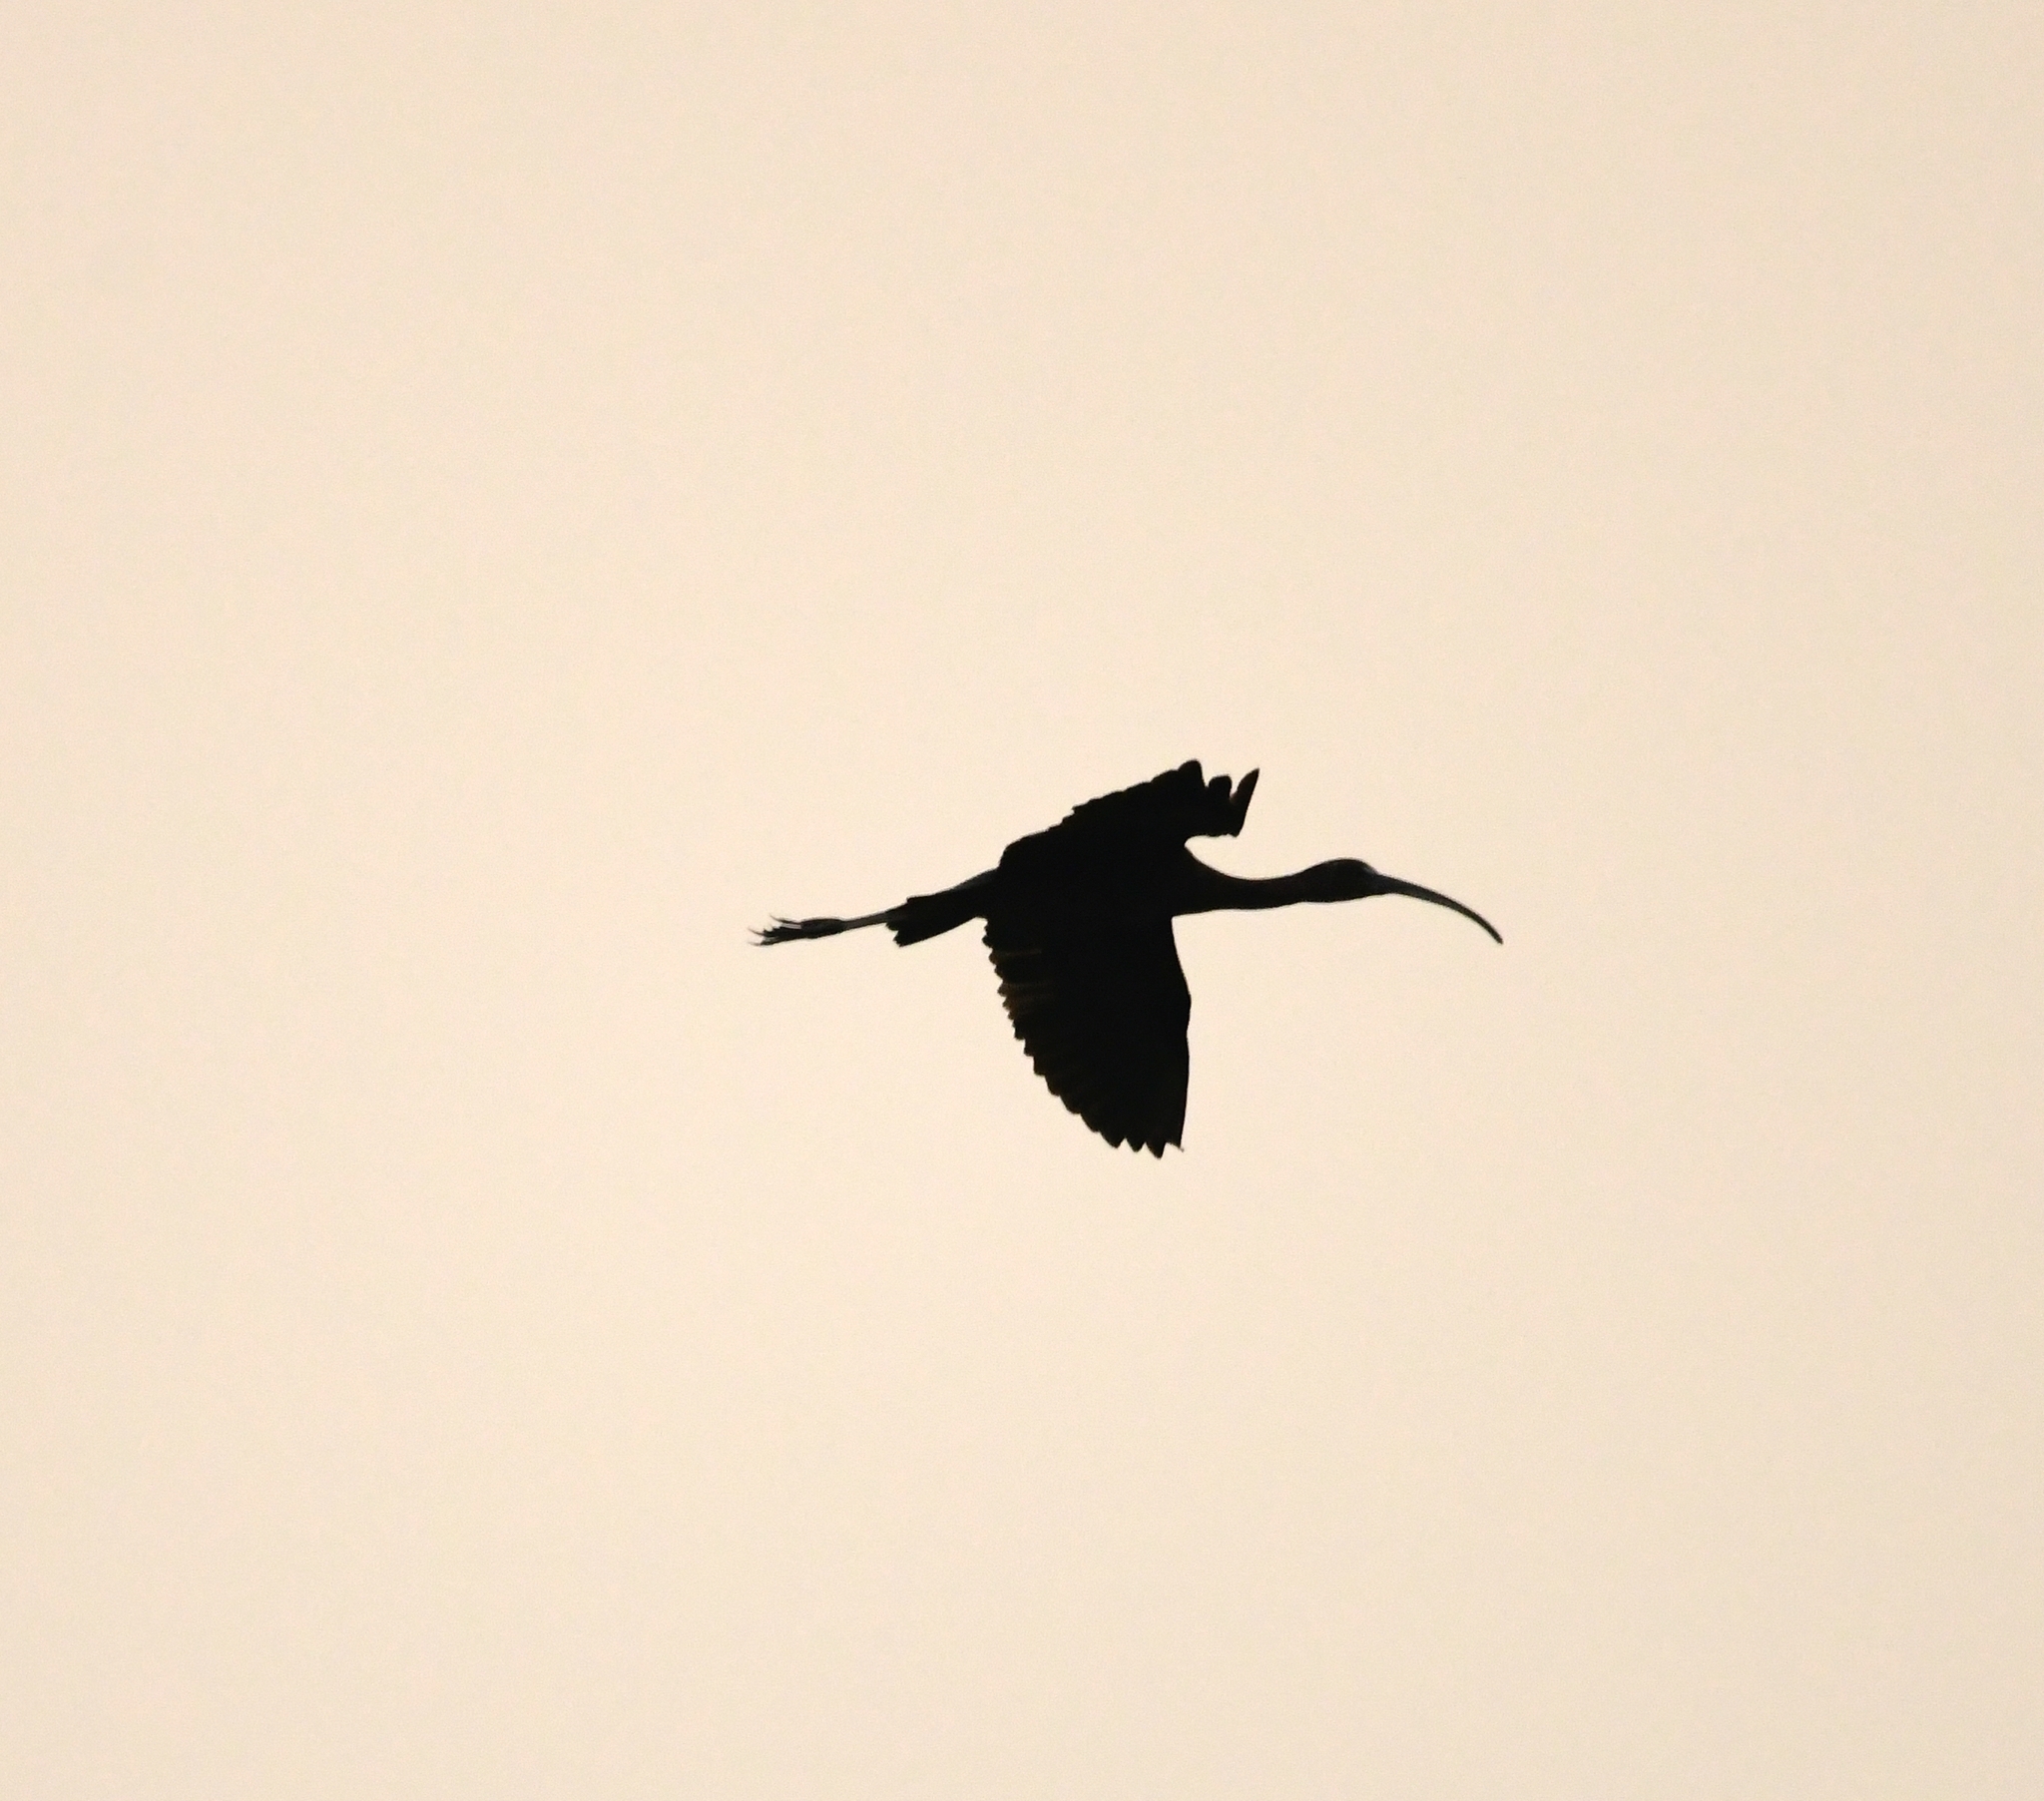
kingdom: Animalia
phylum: Chordata
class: Aves
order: Pelecaniformes
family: Threskiornithidae
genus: Plegadis
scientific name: Plegadis falcinellus
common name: Glossy ibis
